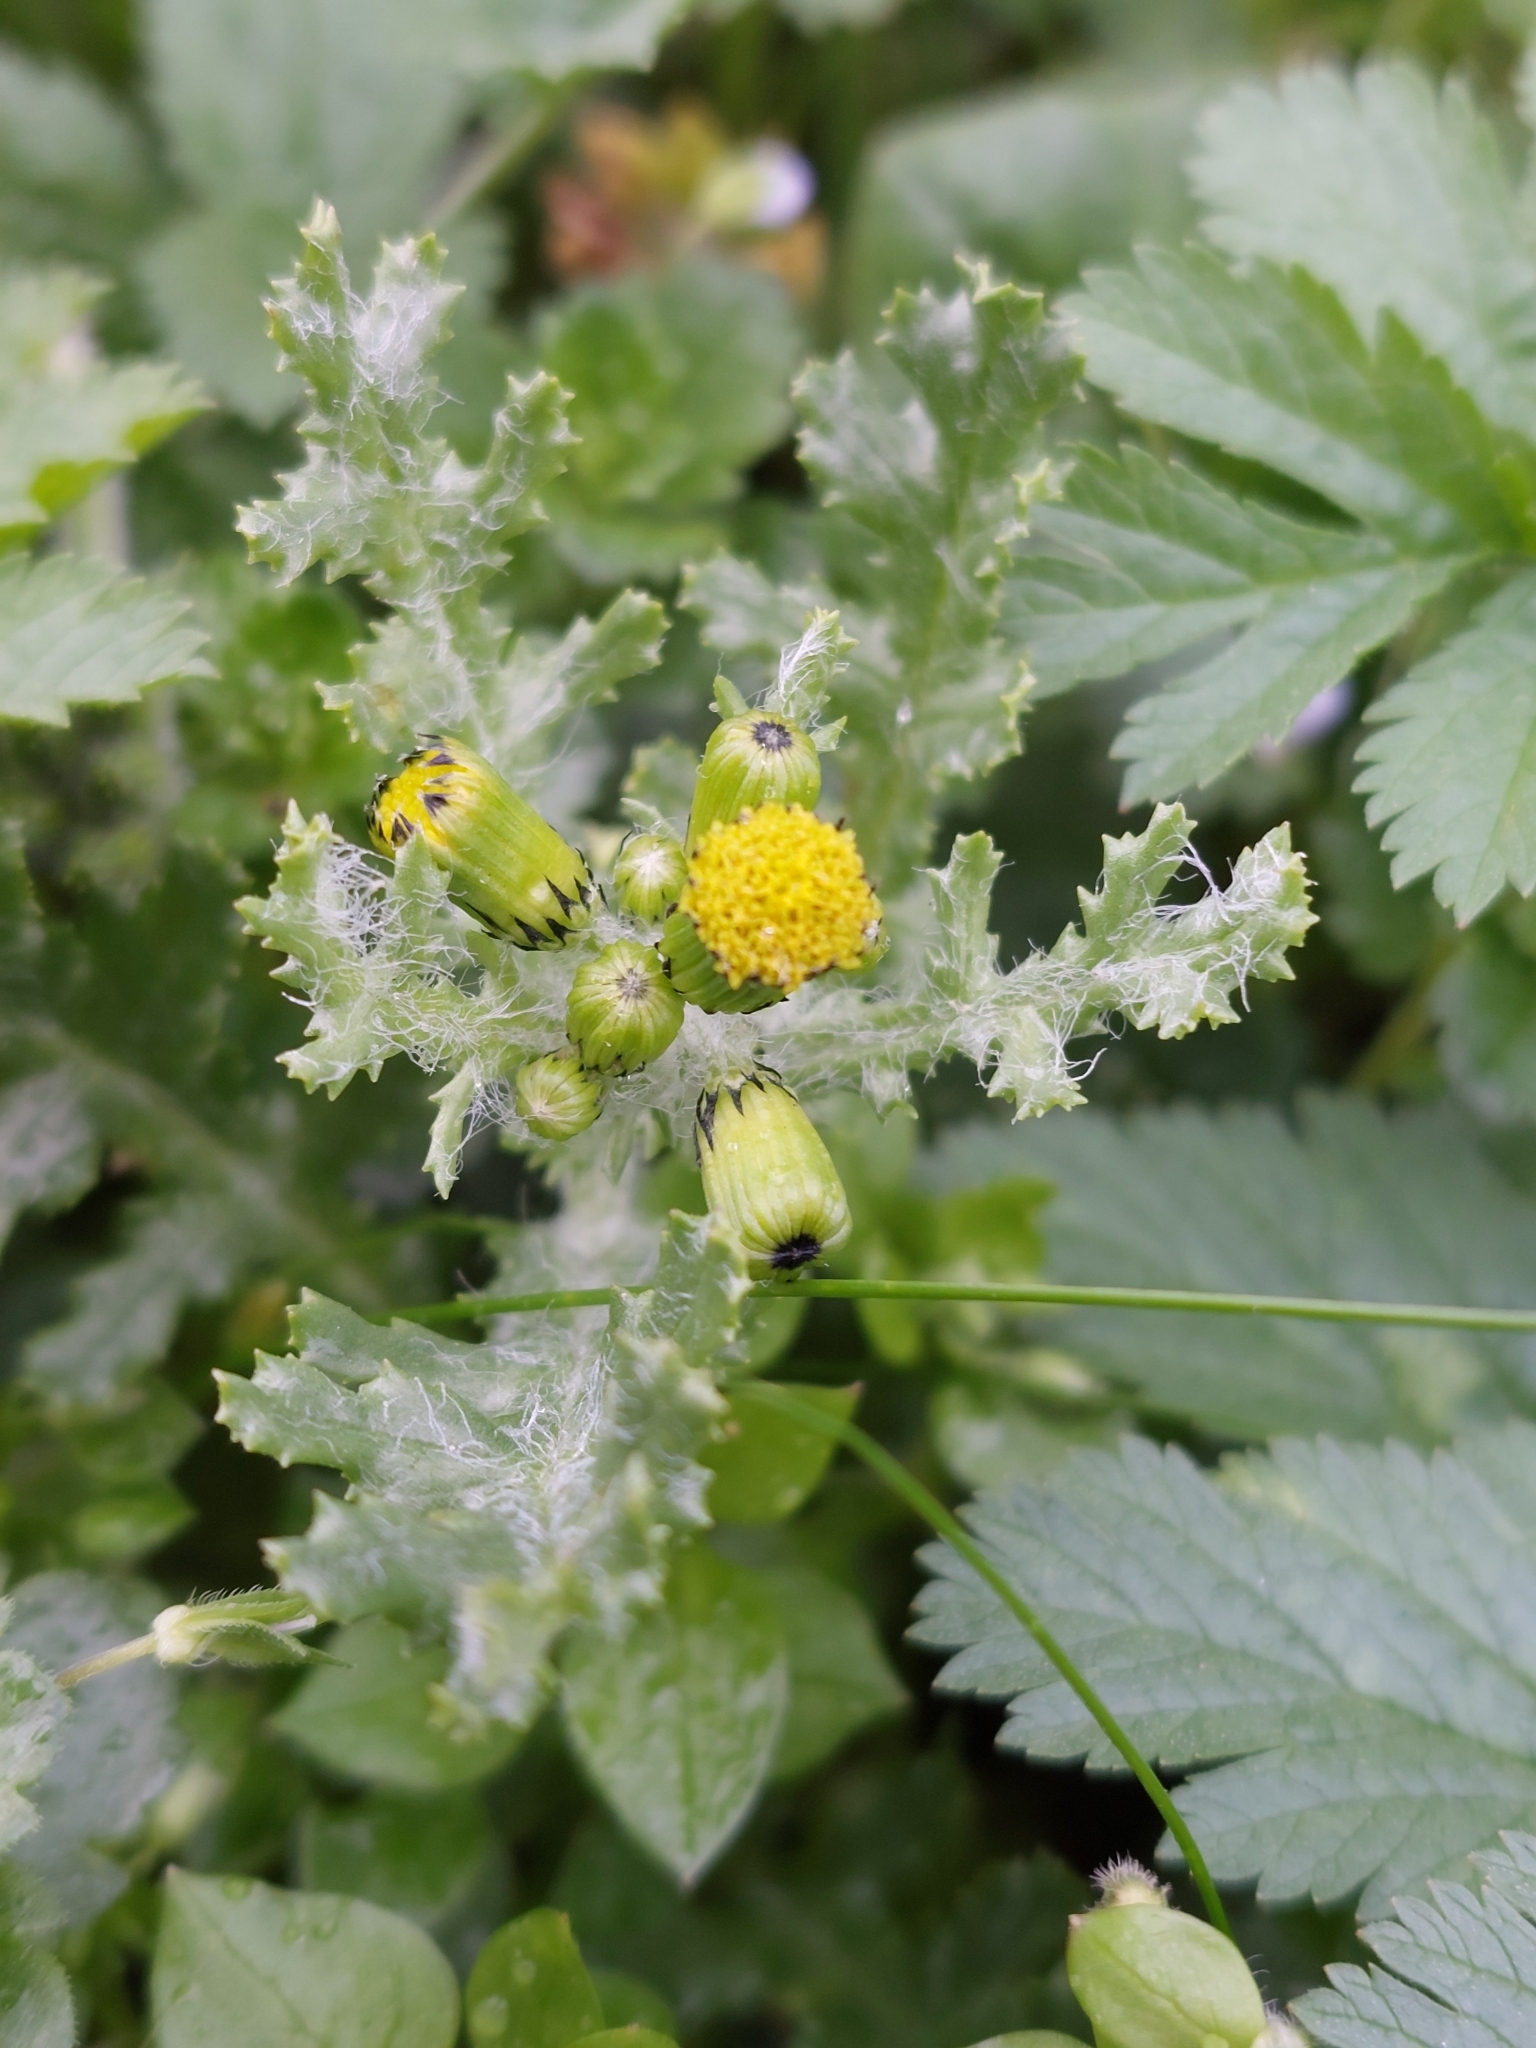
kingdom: Plantae
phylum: Tracheophyta
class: Magnoliopsida
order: Asterales
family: Asteraceae
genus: Senecio
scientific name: Senecio vulgaris
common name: Old-man-in-the-spring
